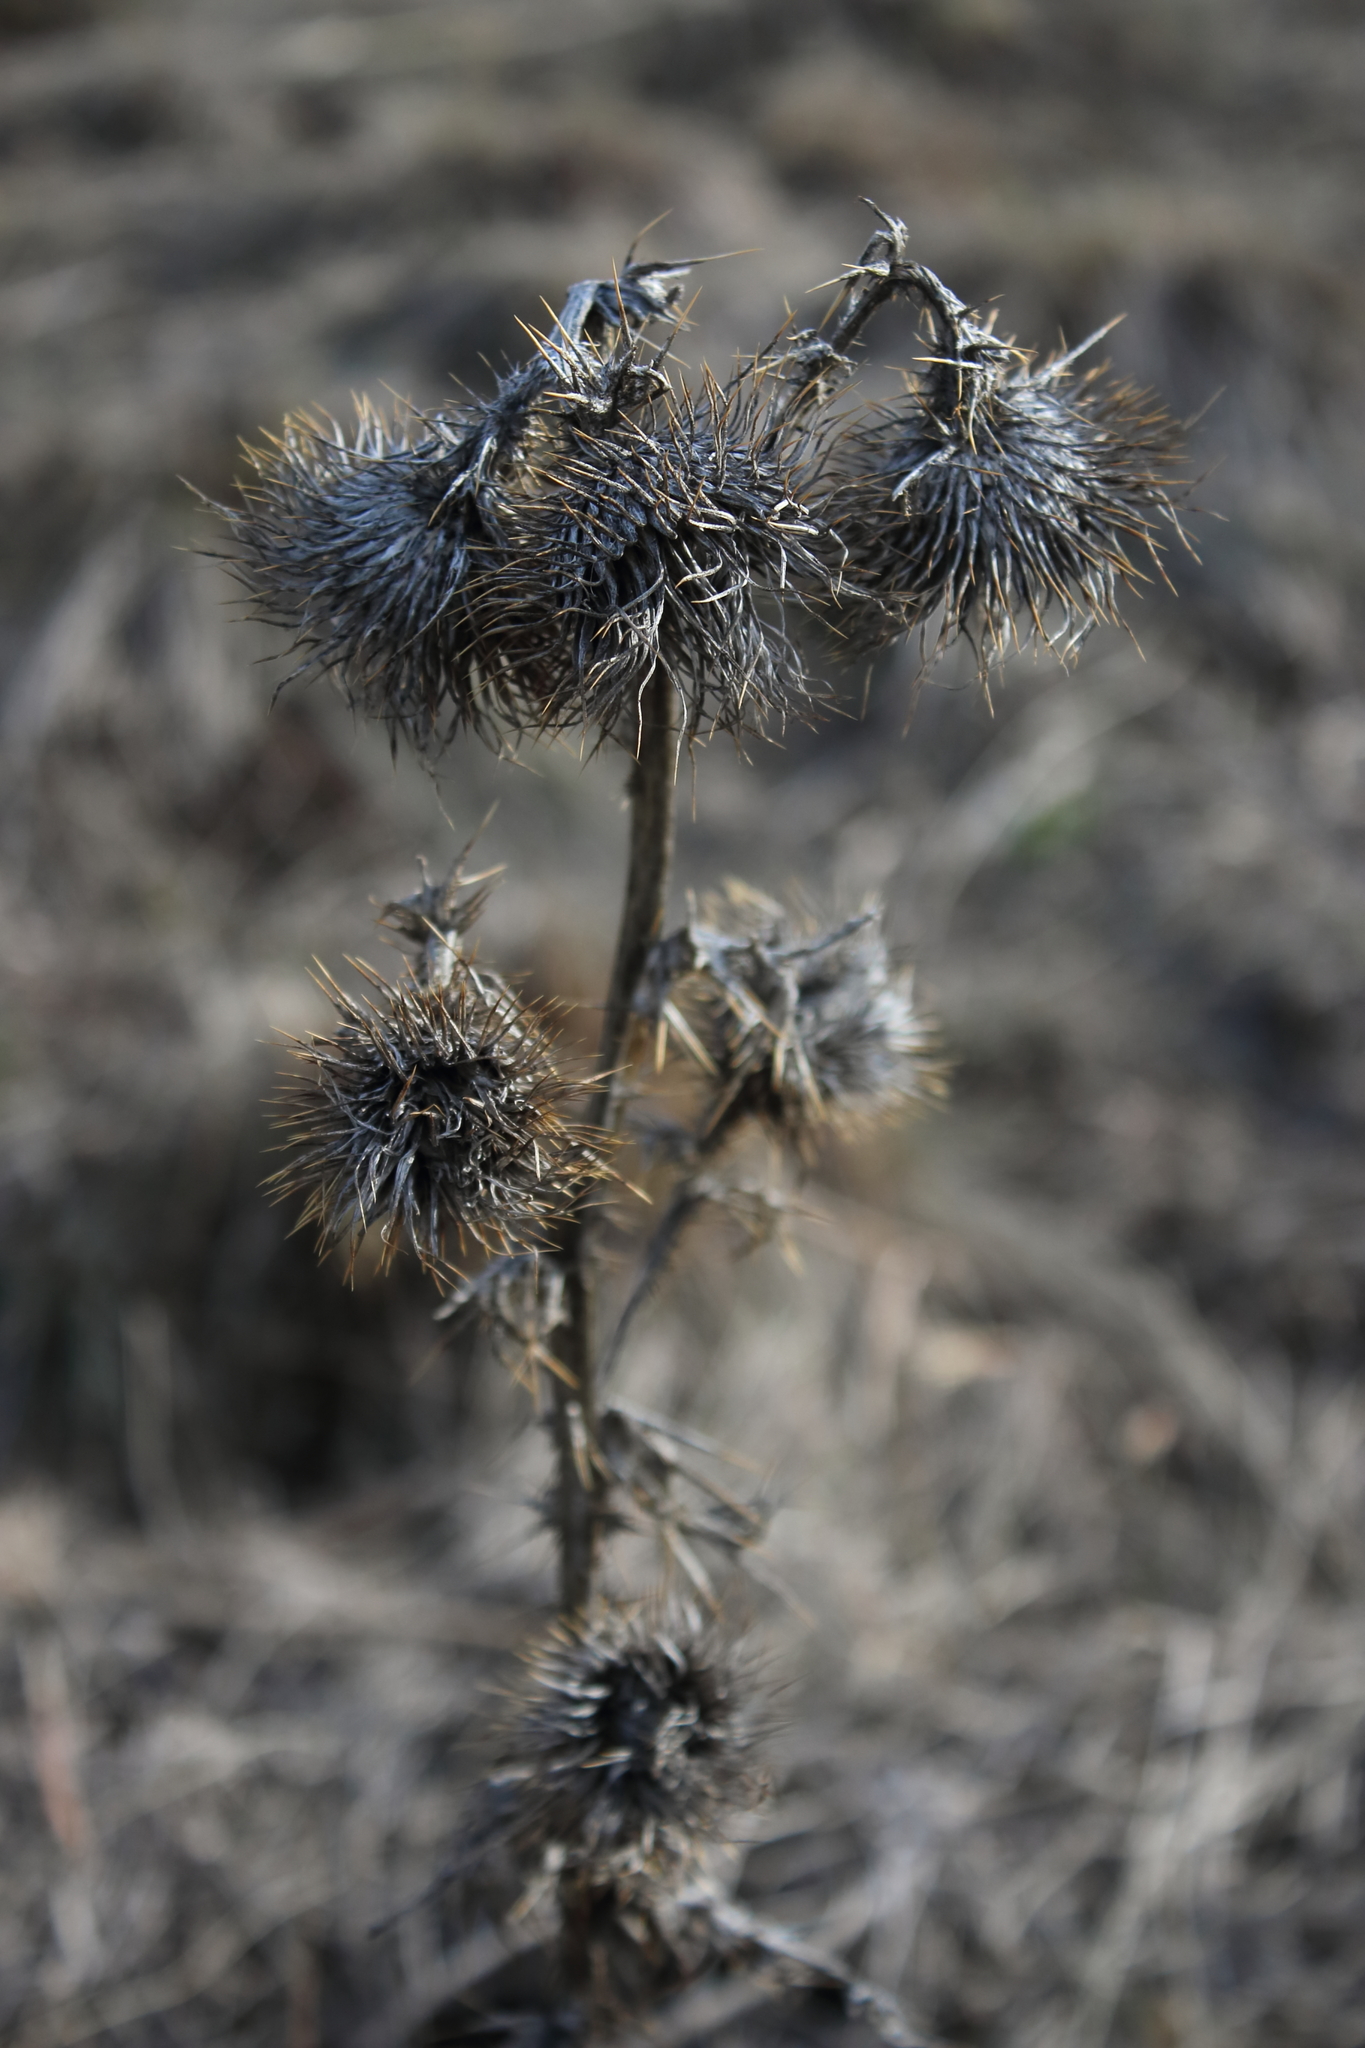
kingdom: Plantae
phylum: Tracheophyta
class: Magnoliopsida
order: Asterales
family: Asteraceae
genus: Cirsium
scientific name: Cirsium vulgare
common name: Bull thistle
